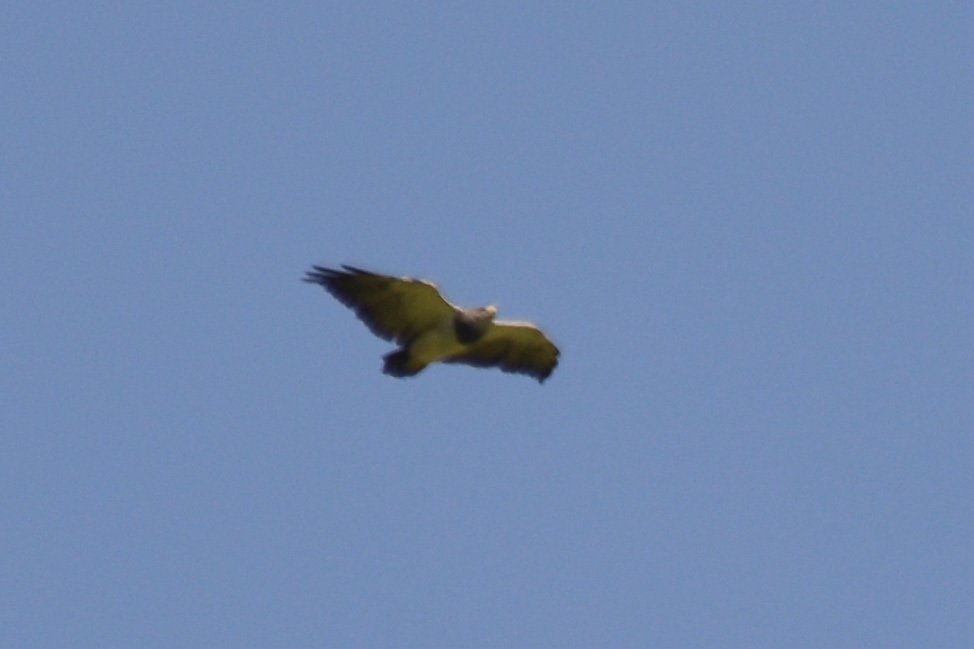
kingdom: Animalia
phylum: Chordata
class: Aves
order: Accipitriformes
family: Accipitridae
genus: Geranoaetus
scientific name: Geranoaetus melanoleucus
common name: Black-chested buzzard-eagle
